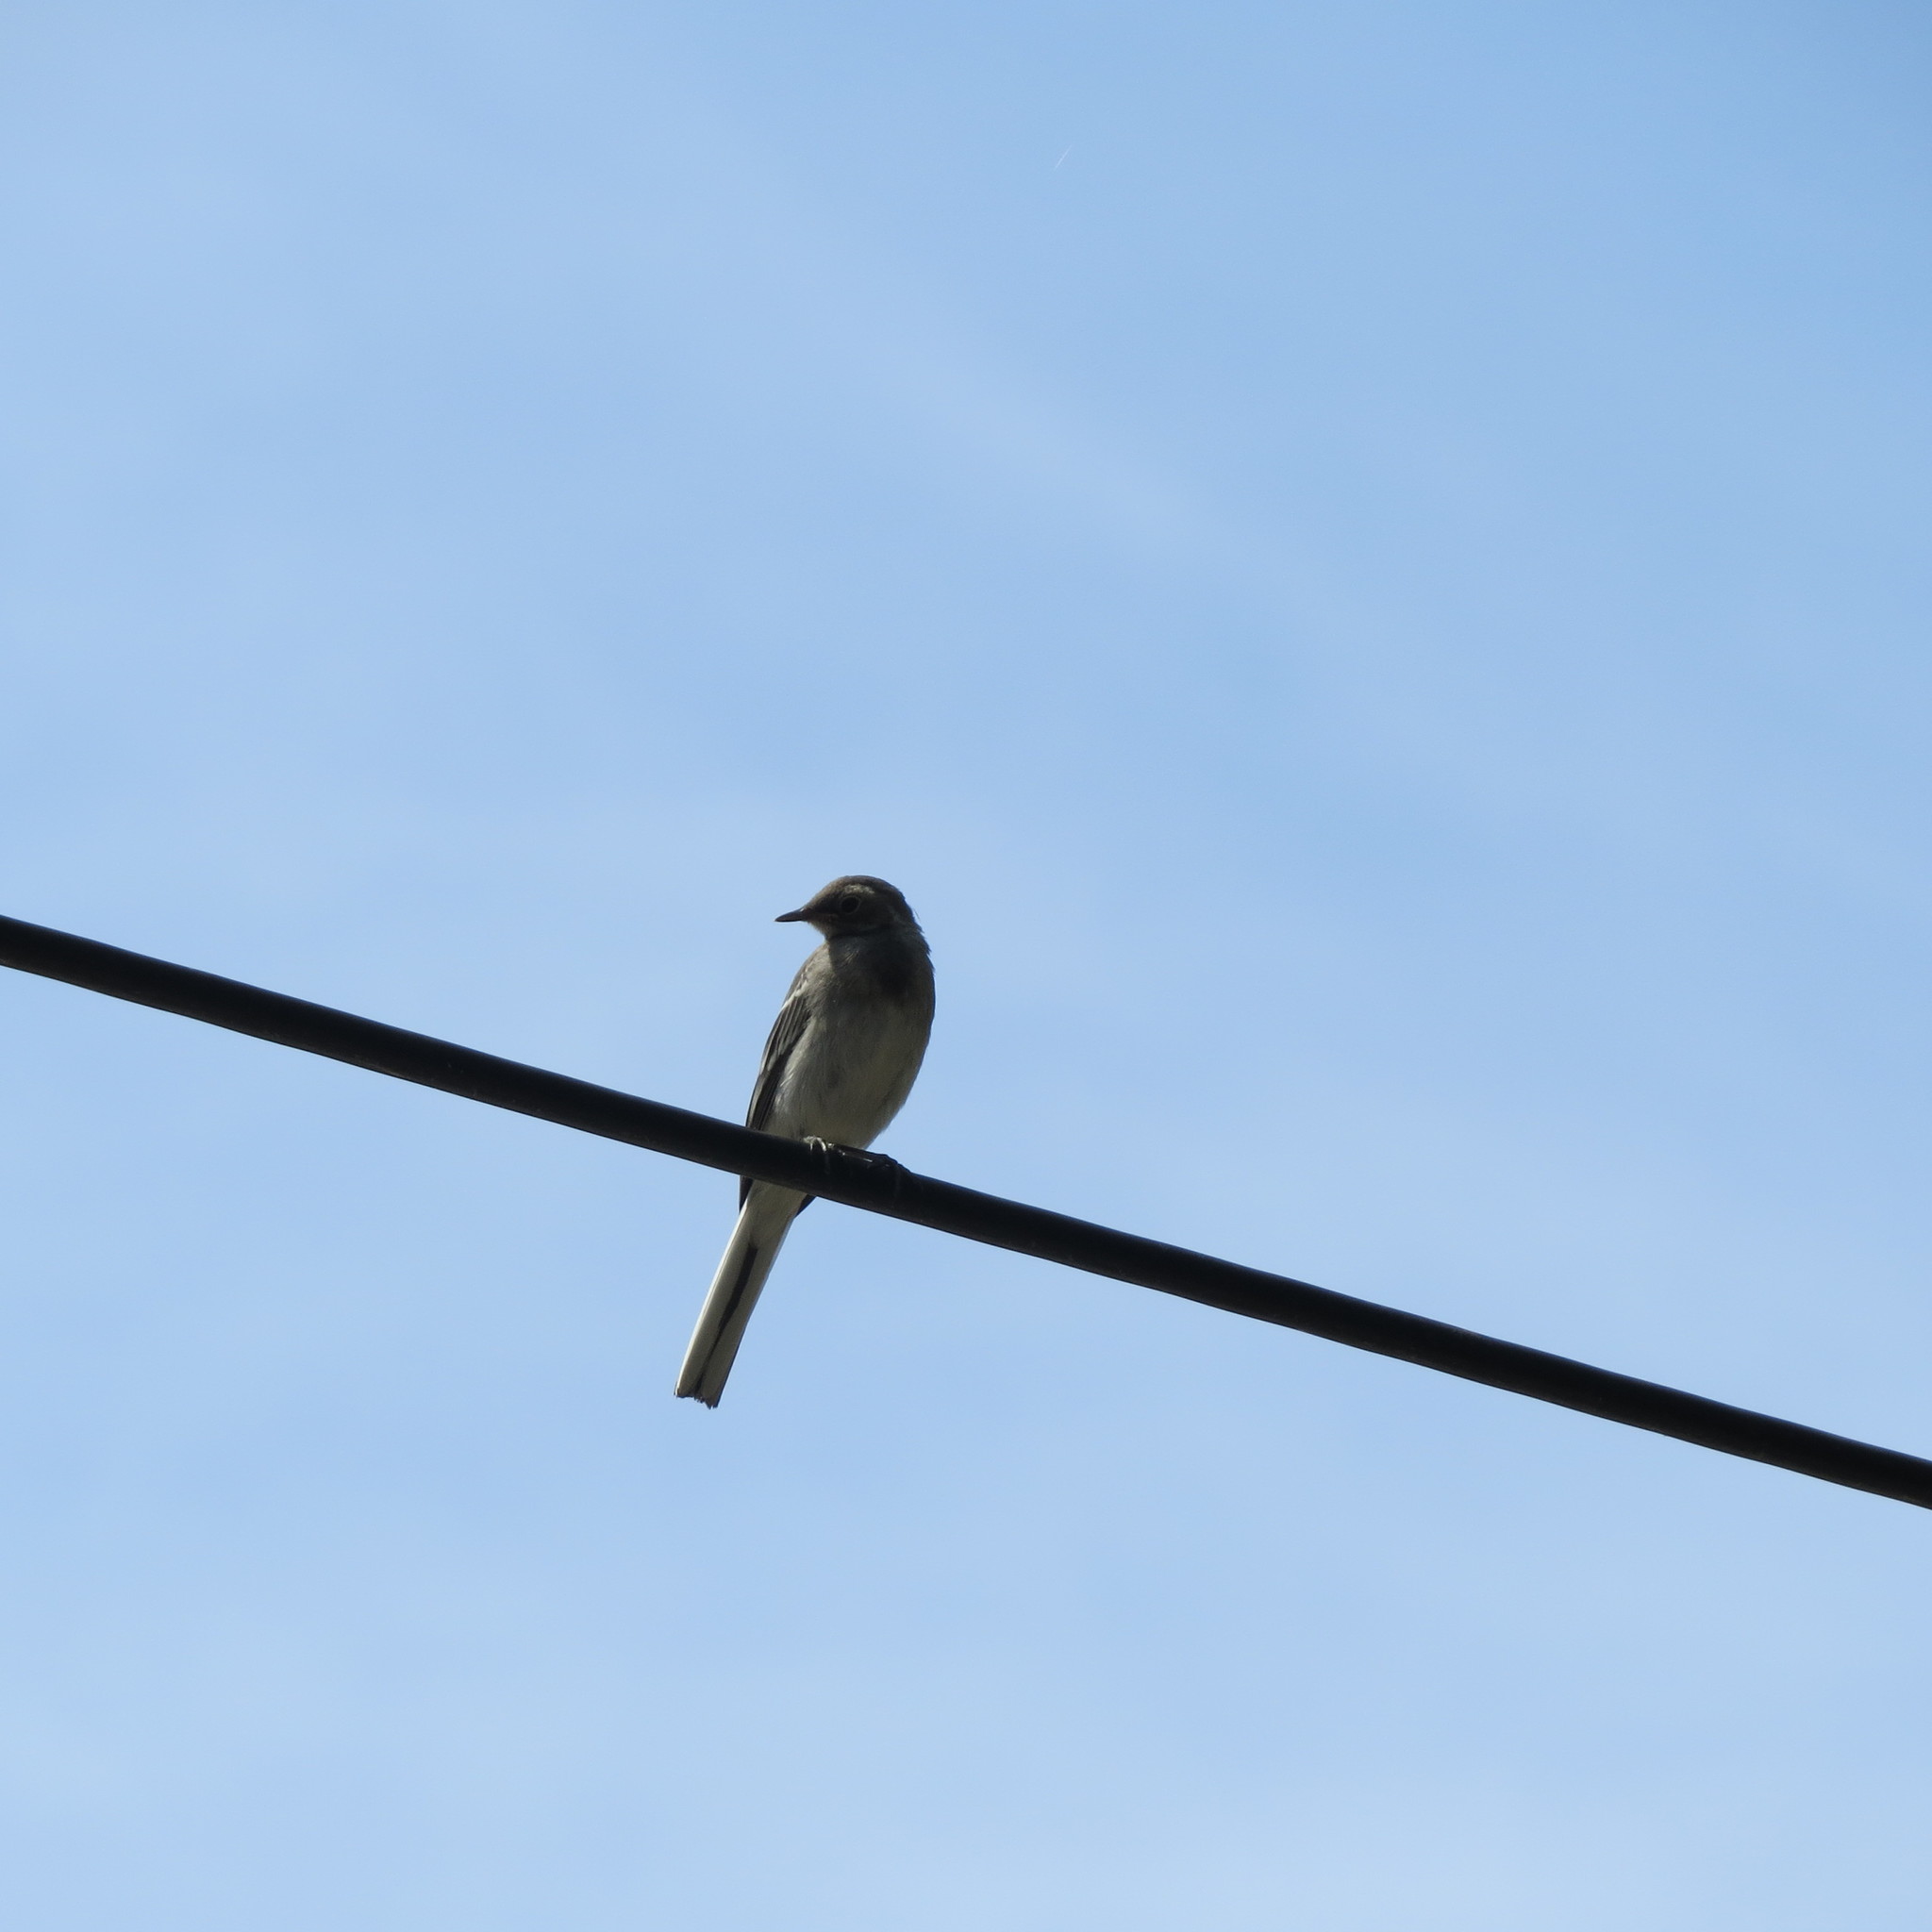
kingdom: Animalia
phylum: Chordata
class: Aves
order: Passeriformes
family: Motacillidae
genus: Motacilla
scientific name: Motacilla alba
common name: White wagtail
